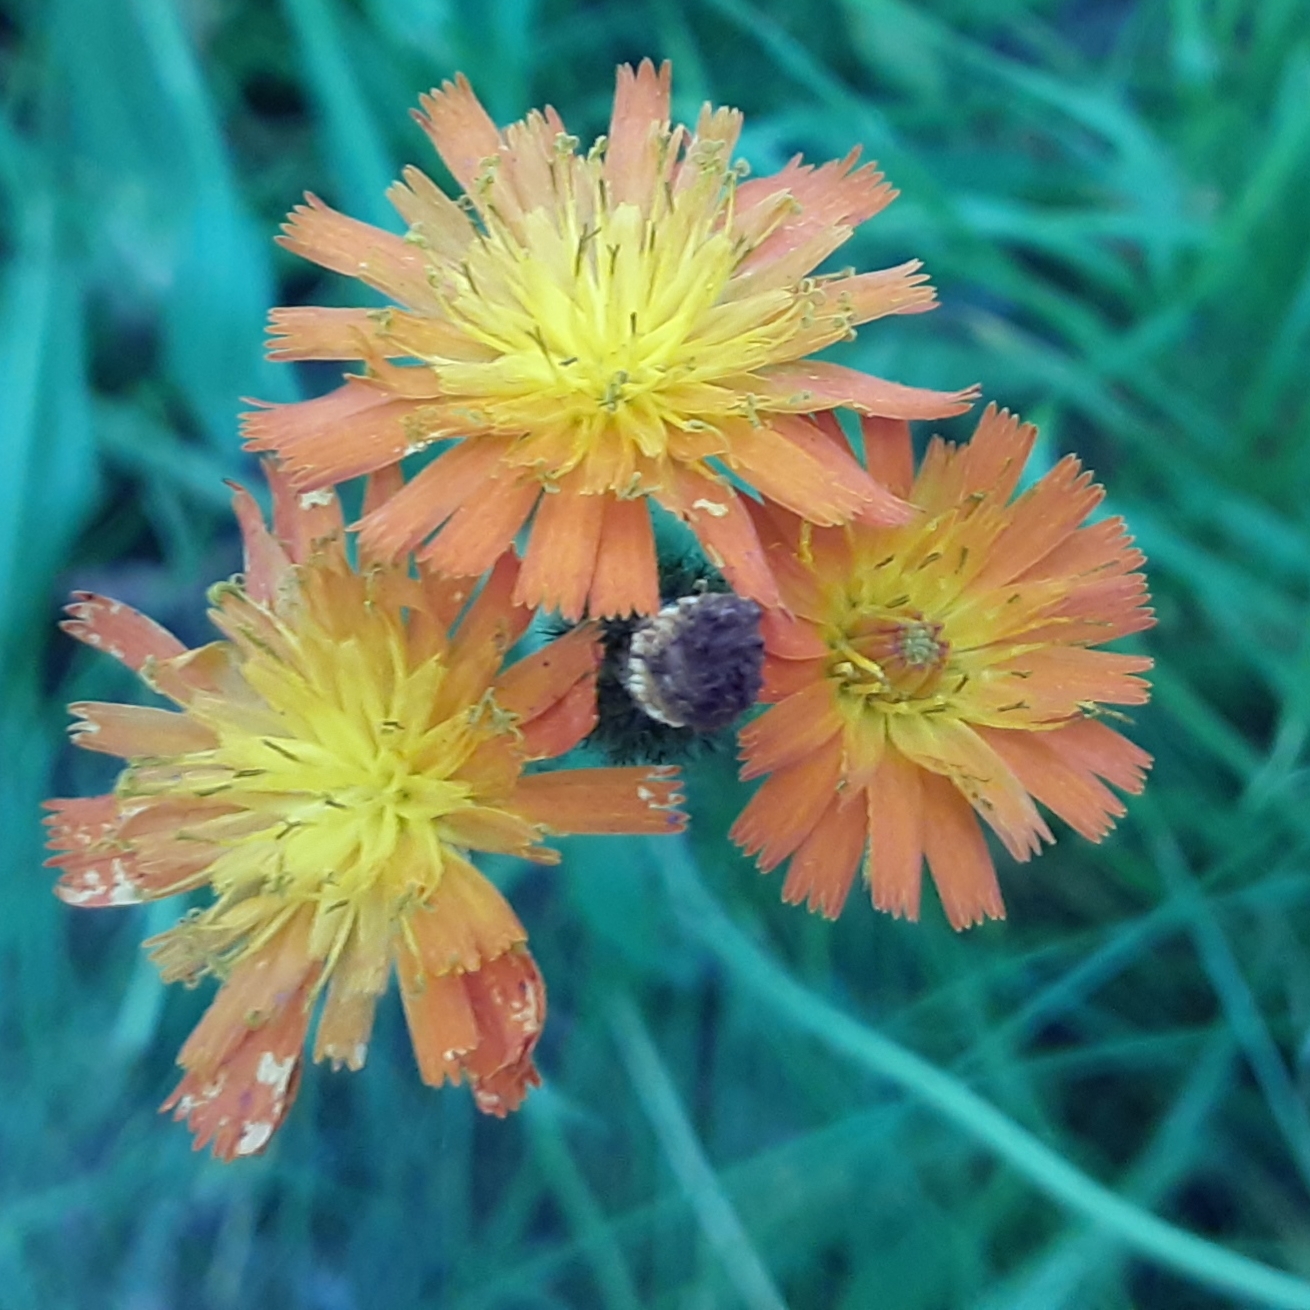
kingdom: Plantae
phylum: Tracheophyta
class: Magnoliopsida
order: Asterales
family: Asteraceae
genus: Pilosella
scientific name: Pilosella aurantiaca
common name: Fox-and-cubs
